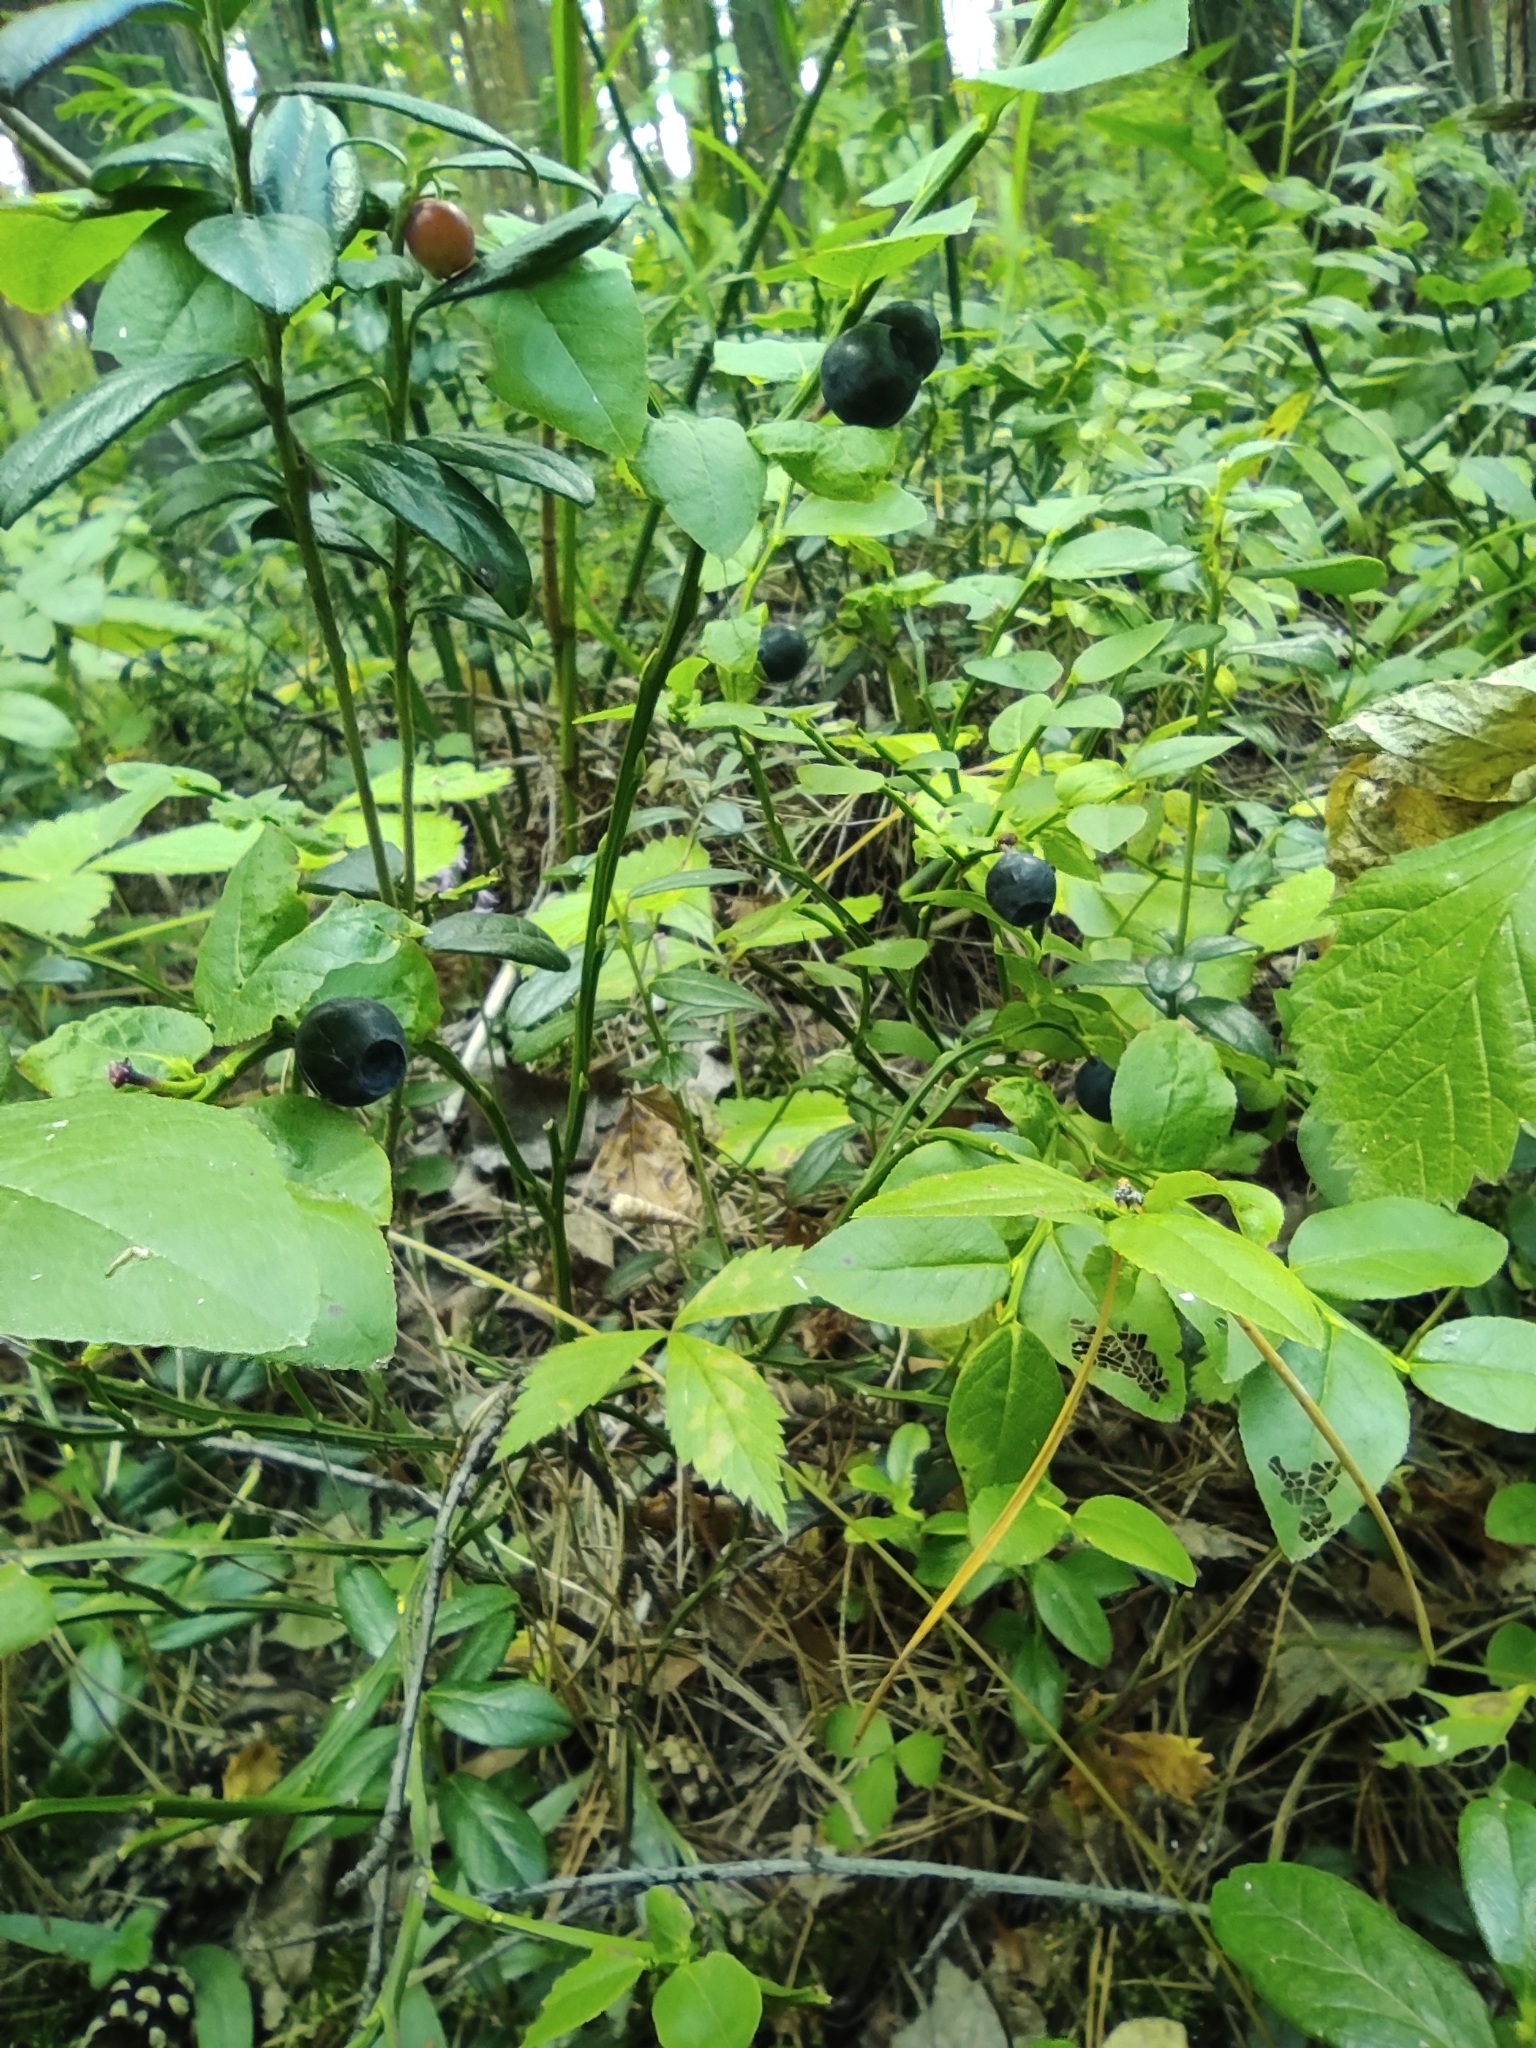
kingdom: Plantae
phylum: Tracheophyta
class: Magnoliopsida
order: Ericales
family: Ericaceae
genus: Vaccinium
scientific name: Vaccinium myrtillus
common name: Bilberry
